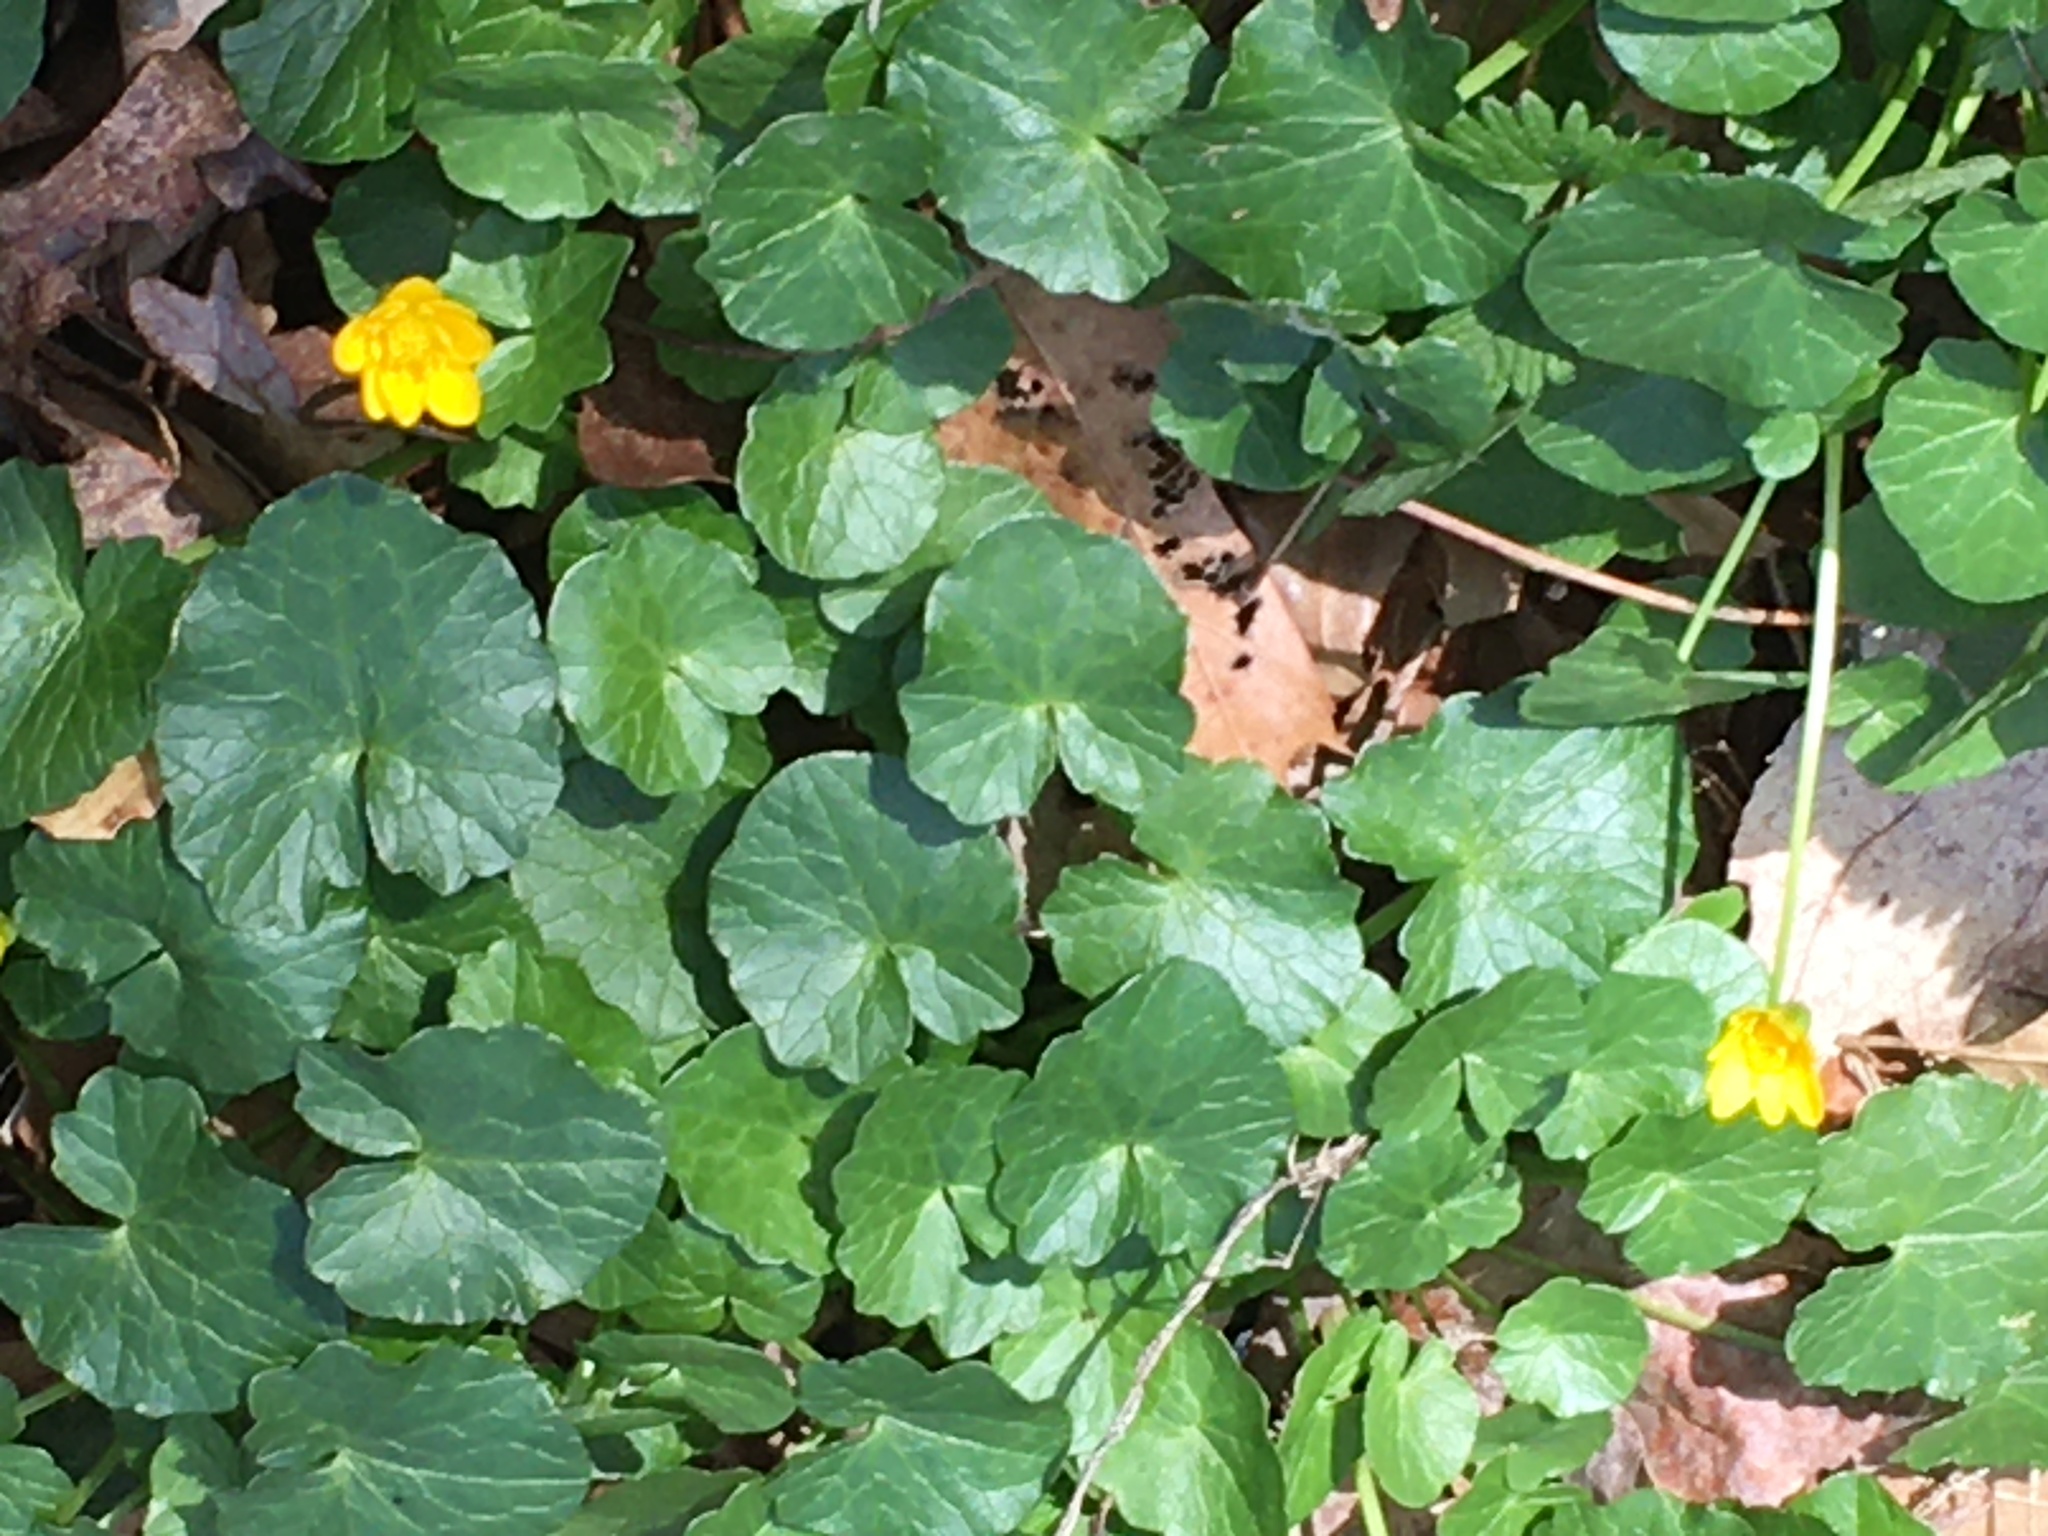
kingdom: Plantae
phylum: Tracheophyta
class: Magnoliopsida
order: Ranunculales
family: Ranunculaceae
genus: Ficaria
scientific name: Ficaria verna
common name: Lesser celandine
